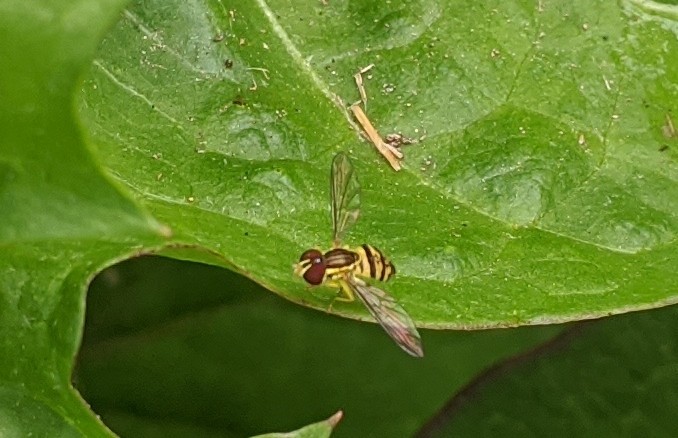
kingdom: Animalia
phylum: Arthropoda
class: Insecta
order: Diptera
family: Syrphidae
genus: Toxomerus
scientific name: Toxomerus geminatus
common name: Eastern calligrapher
